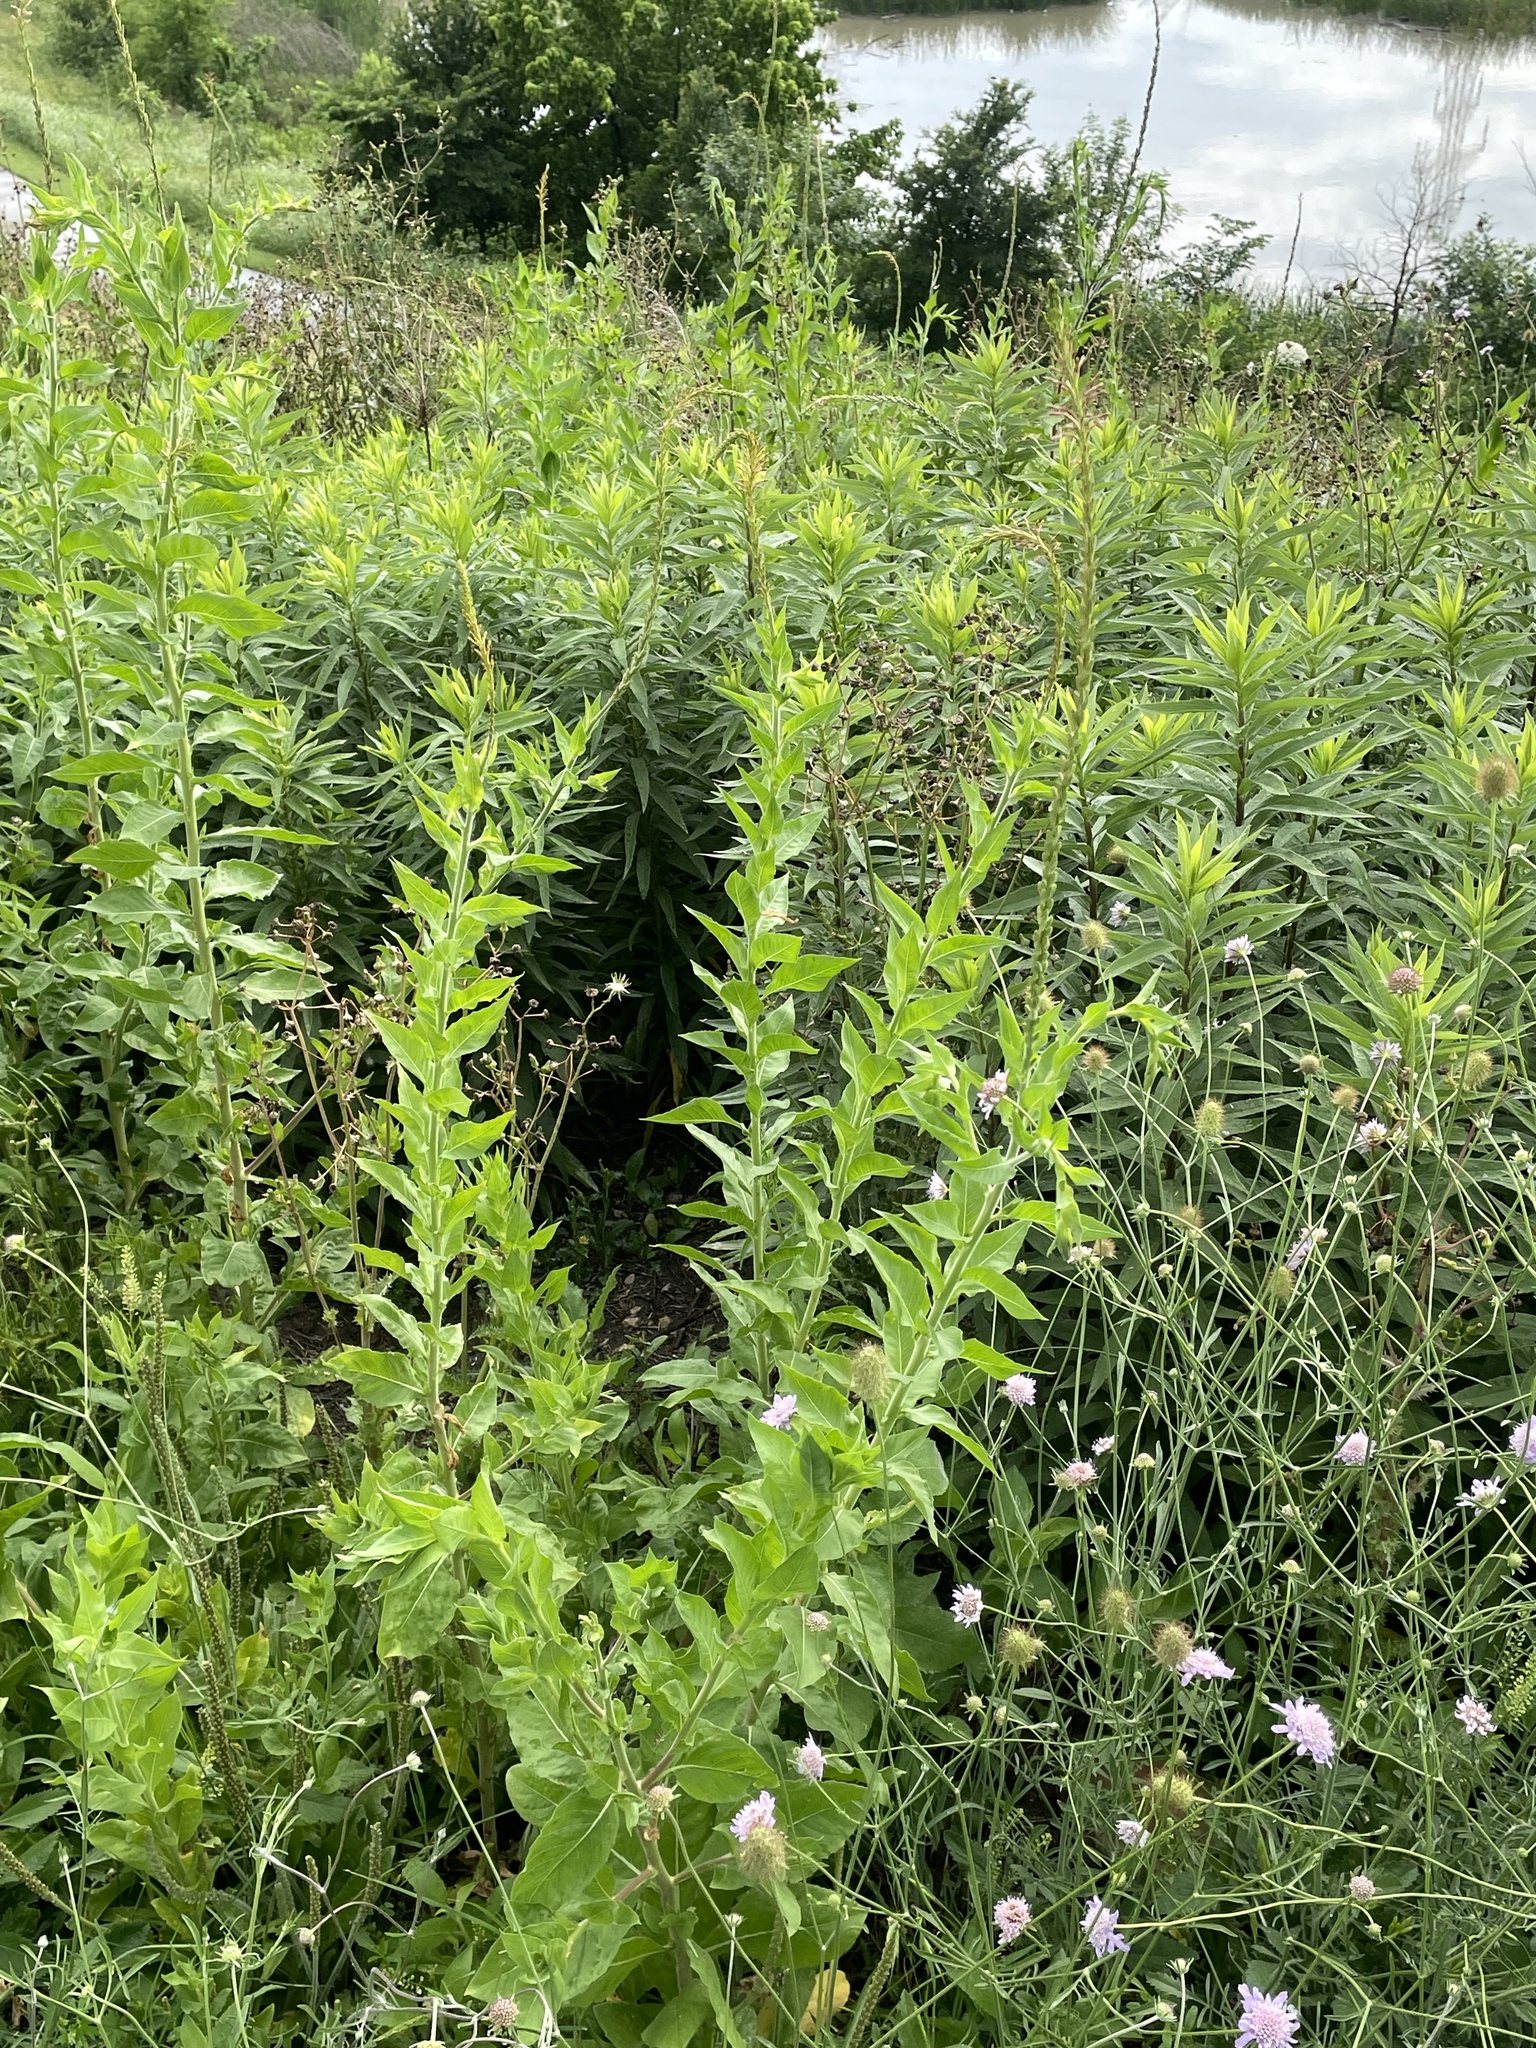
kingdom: Plantae
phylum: Tracheophyta
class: Magnoliopsida
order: Myrtales
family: Onagraceae
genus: Oenothera
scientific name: Oenothera curtiflora
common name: Velvetweed
